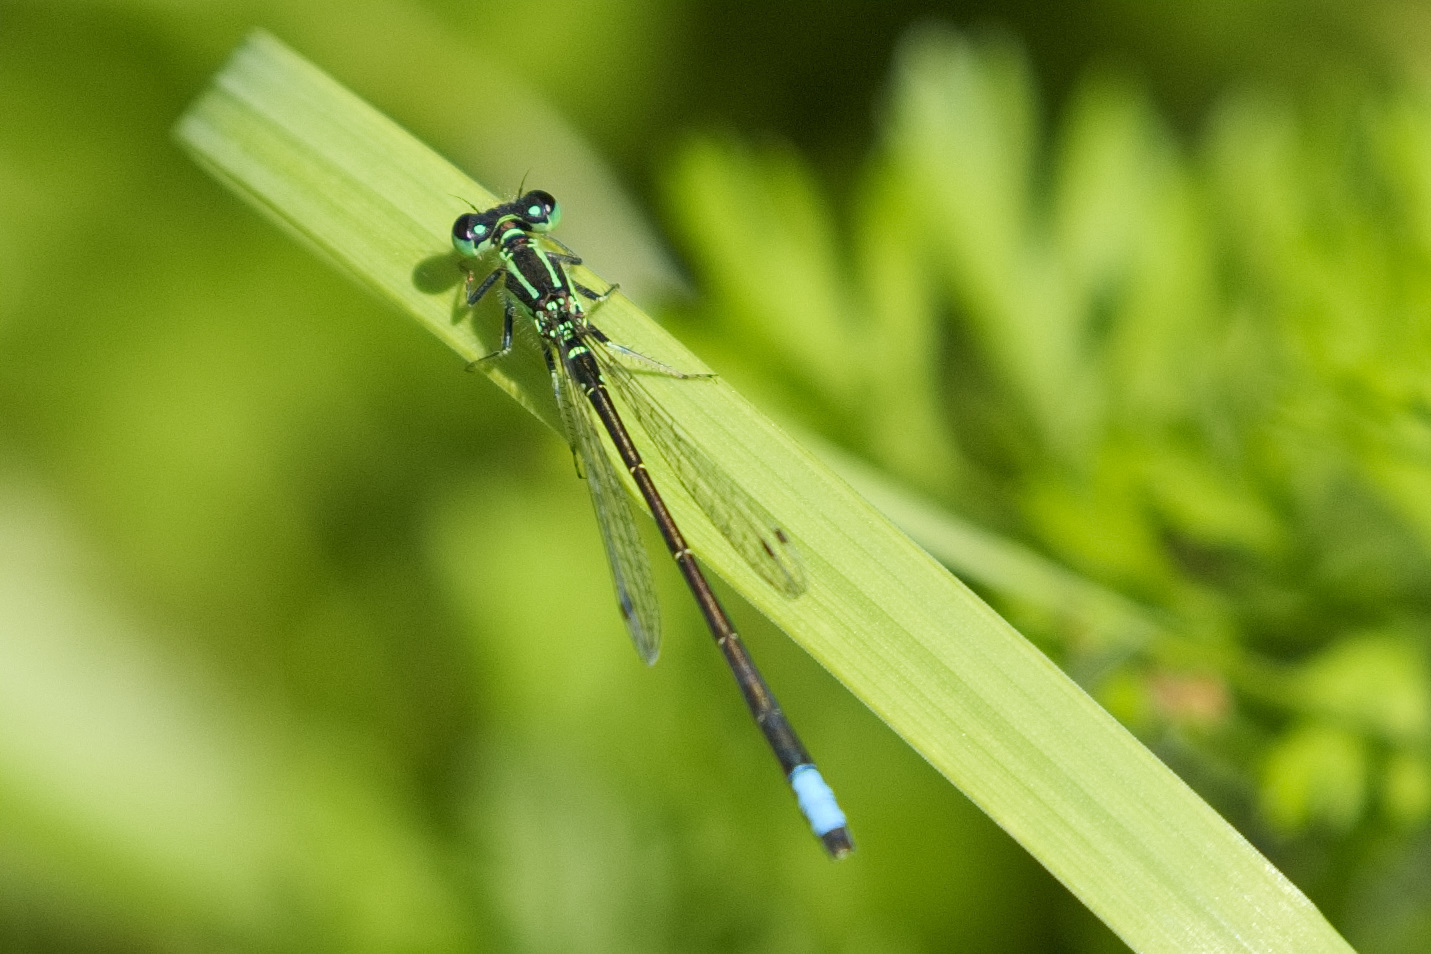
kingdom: Animalia
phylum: Arthropoda
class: Insecta
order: Odonata
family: Coenagrionidae
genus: Ischnura
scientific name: Ischnura verticalis
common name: Eastern forktail
